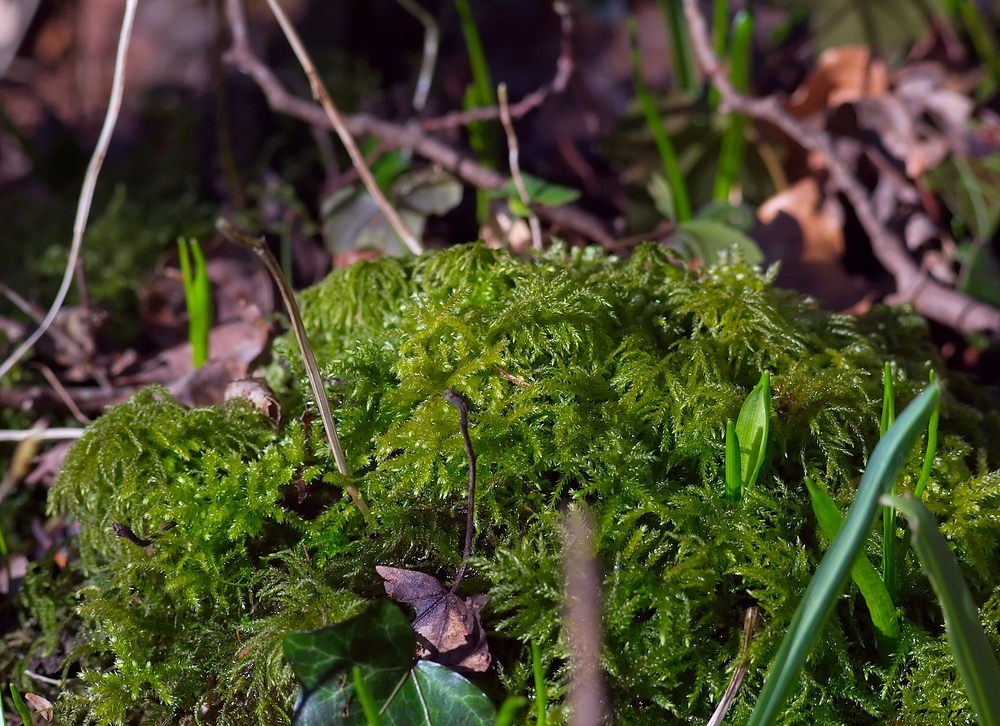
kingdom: Plantae
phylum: Bryophyta
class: Bryopsida
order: Hypnales
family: Neckeraceae
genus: Thamnobryum
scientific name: Thamnobryum alopecurum
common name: Fox-tail feather-moss
